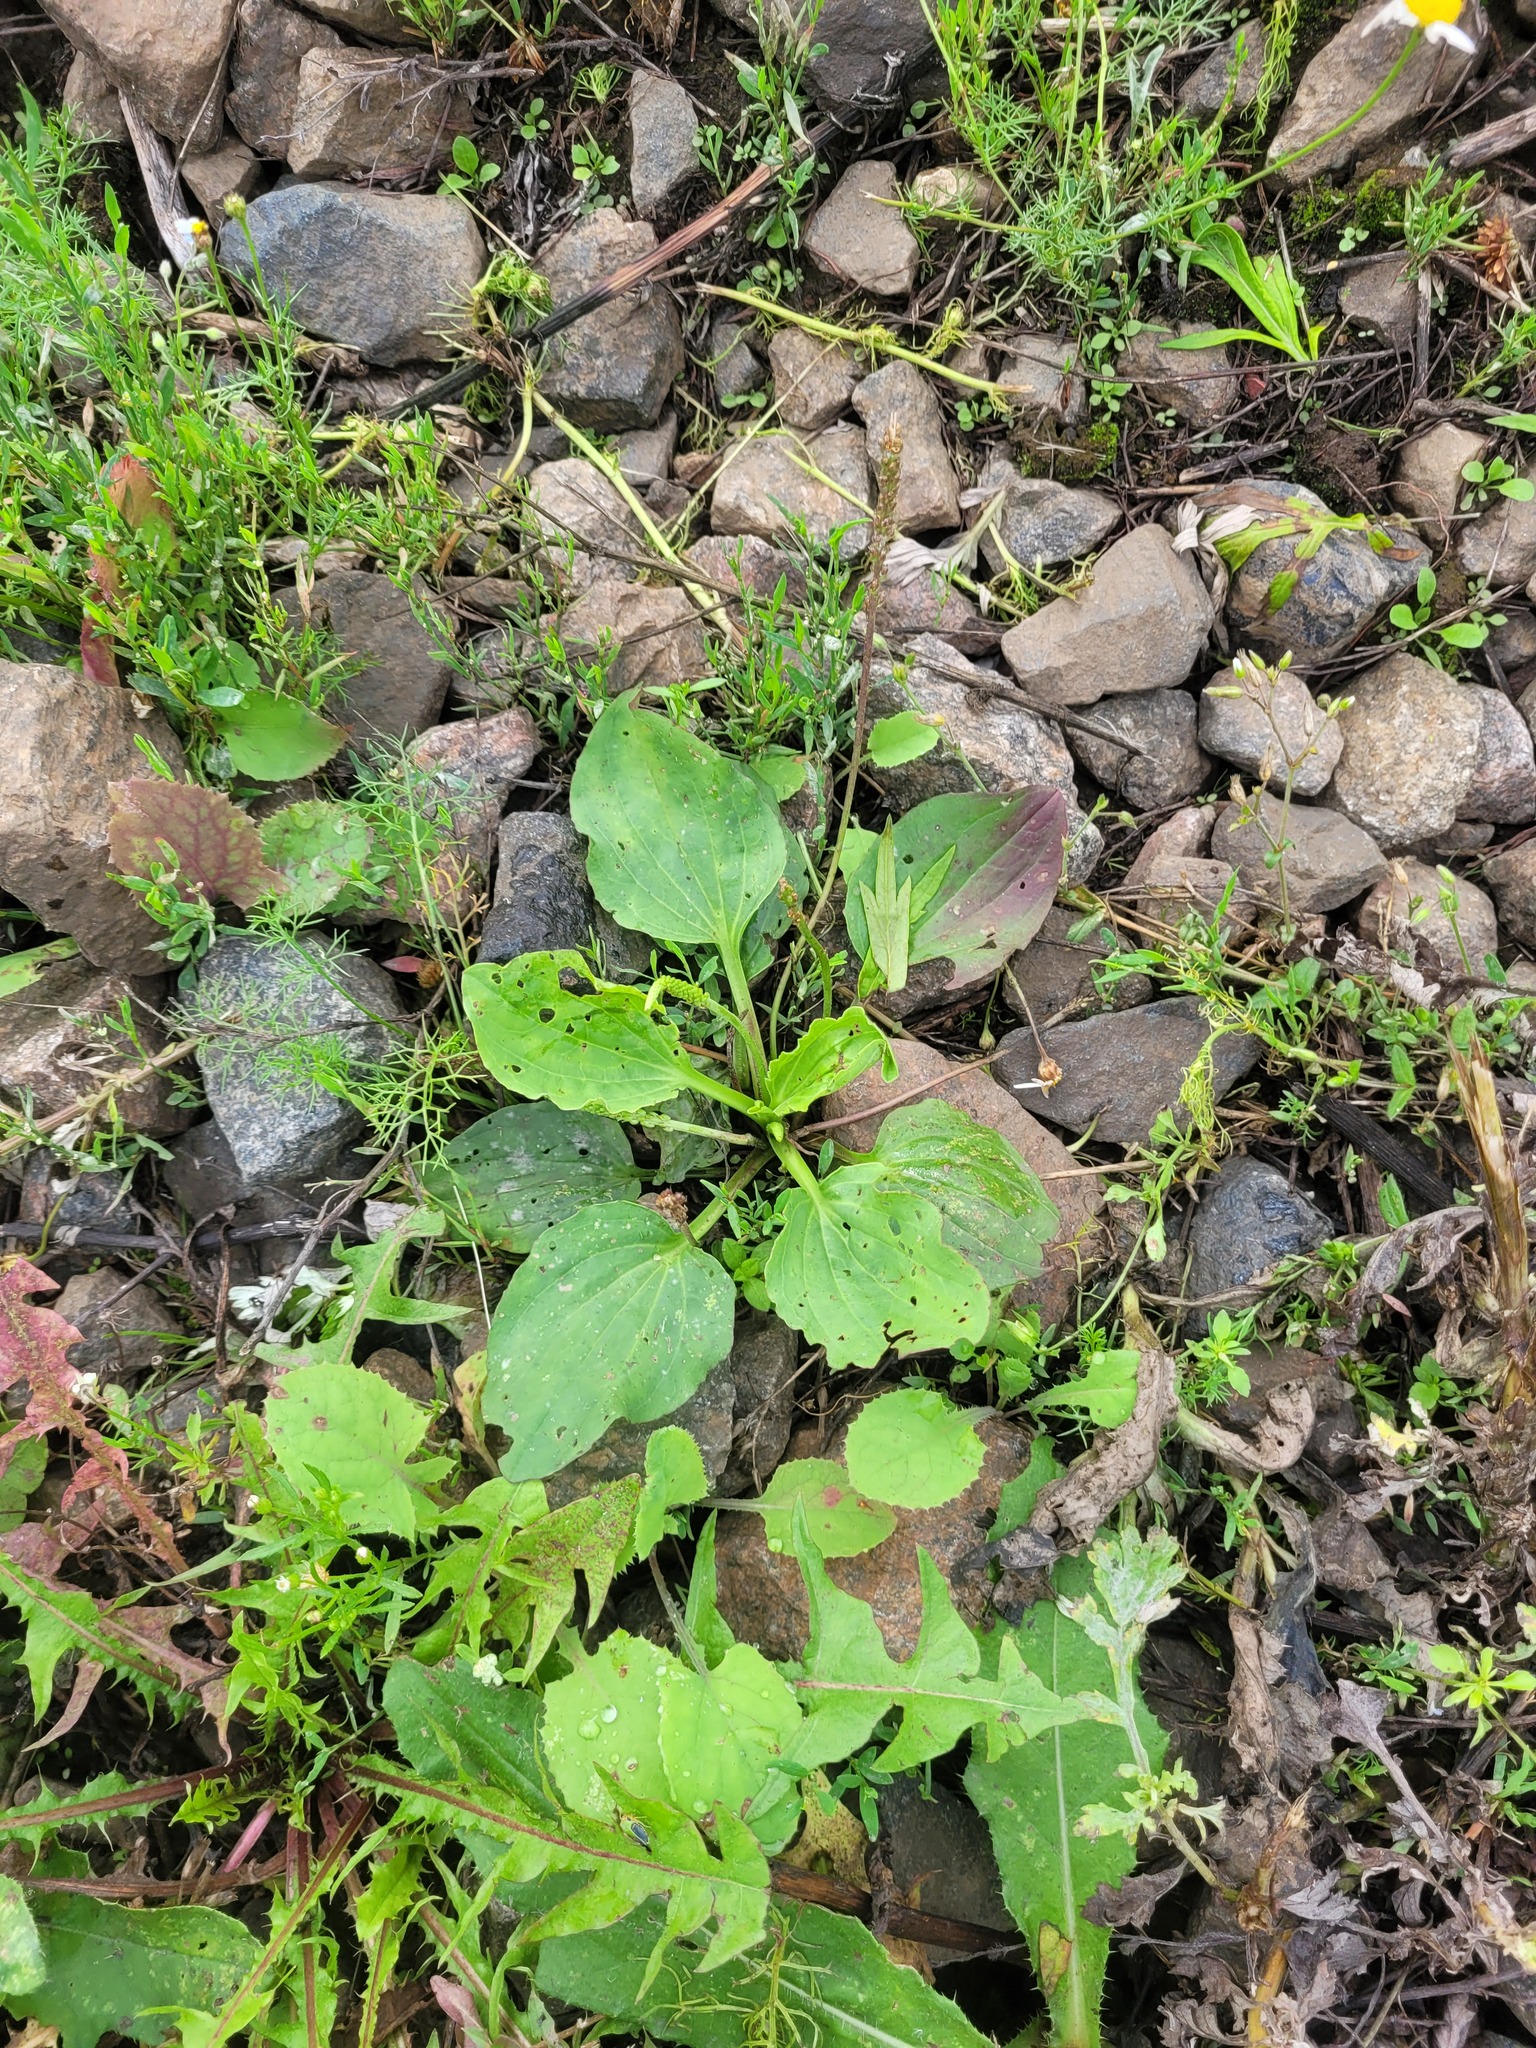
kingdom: Plantae
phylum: Tracheophyta
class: Magnoliopsida
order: Lamiales
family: Plantaginaceae
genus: Plantago
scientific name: Plantago major
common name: Common plantain
